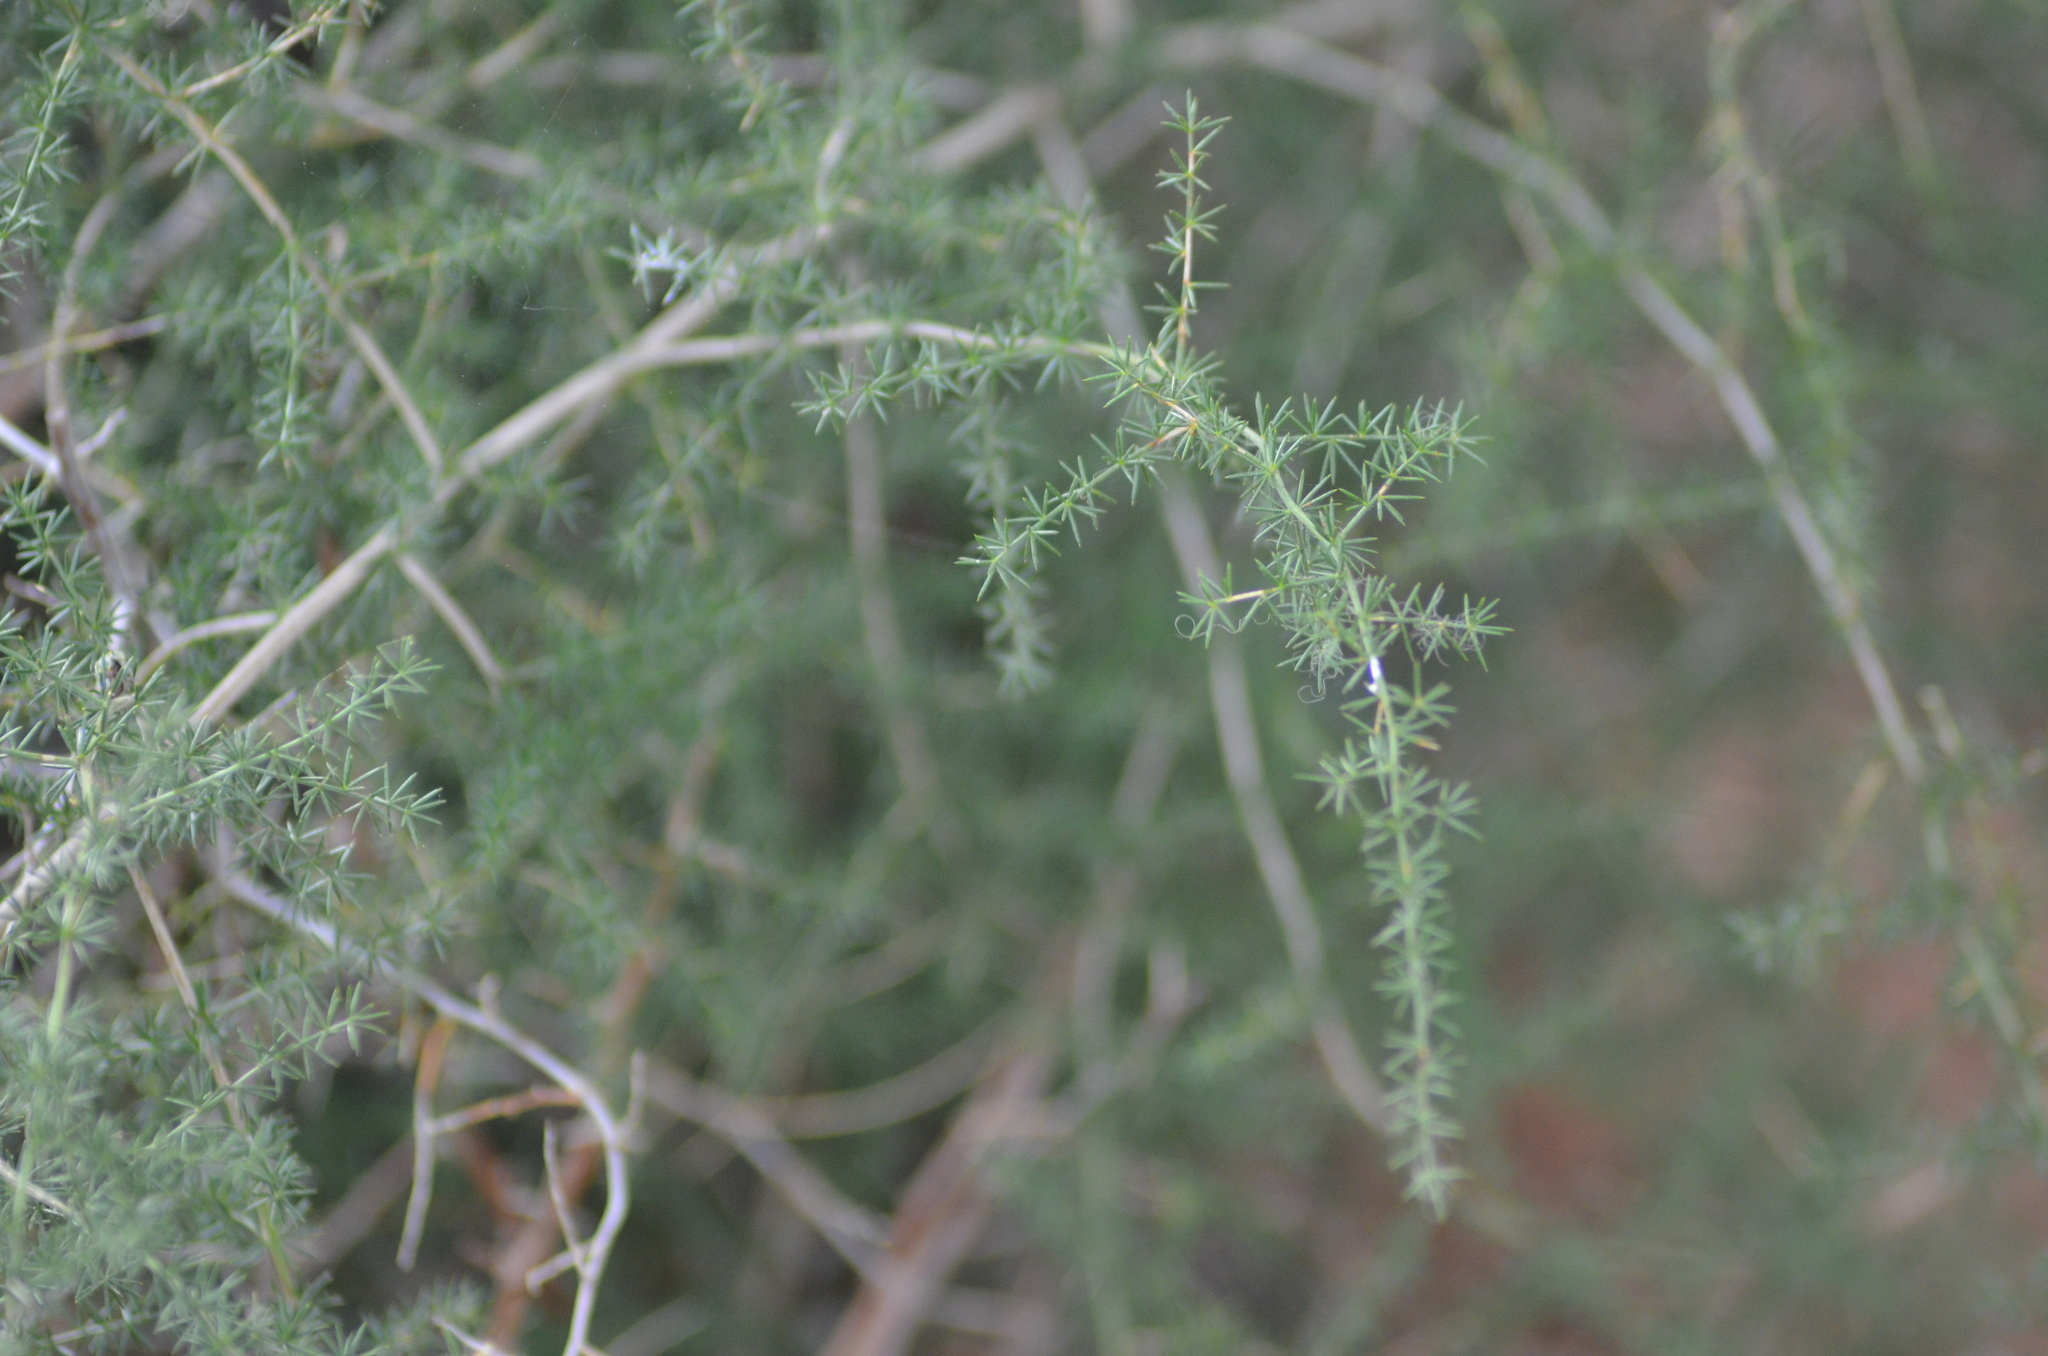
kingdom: Plantae
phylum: Tracheophyta
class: Liliopsida
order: Asparagales
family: Asparagaceae
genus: Asparagus
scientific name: Asparagus acutifolius
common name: Wild asparagus
